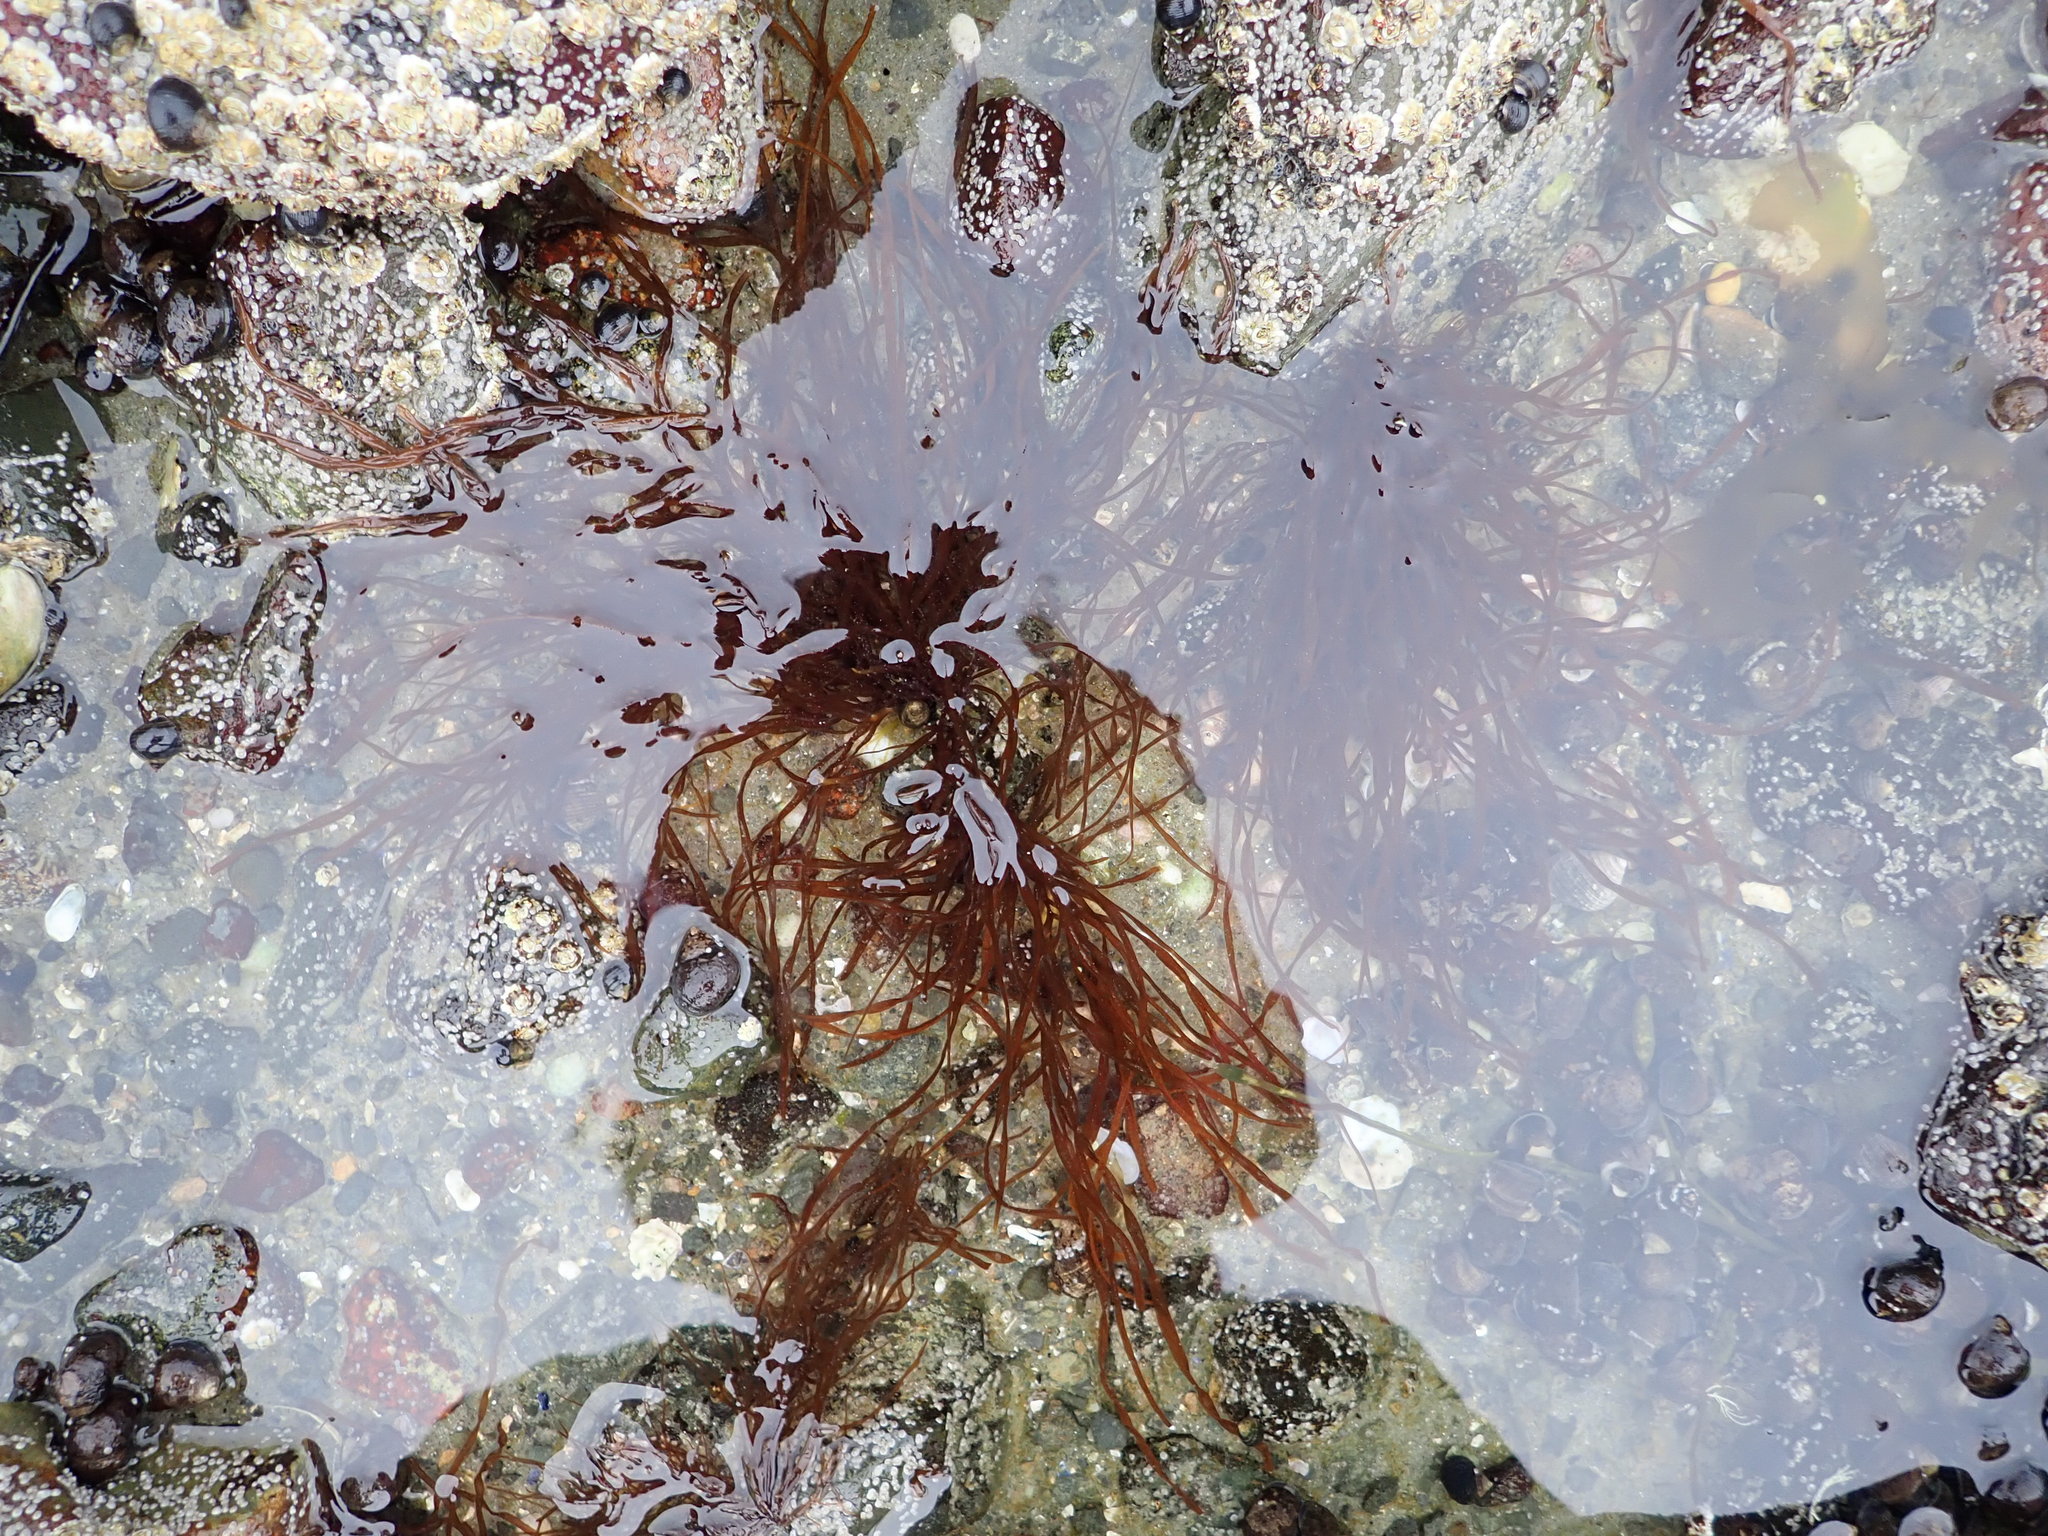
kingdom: Chromista
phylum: Ochrophyta
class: Phaeophyceae
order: Scytosiphonales
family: Scytosiphonaceae
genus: Scytosiphon
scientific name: Scytosiphon lomentaria
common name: Beanweed
